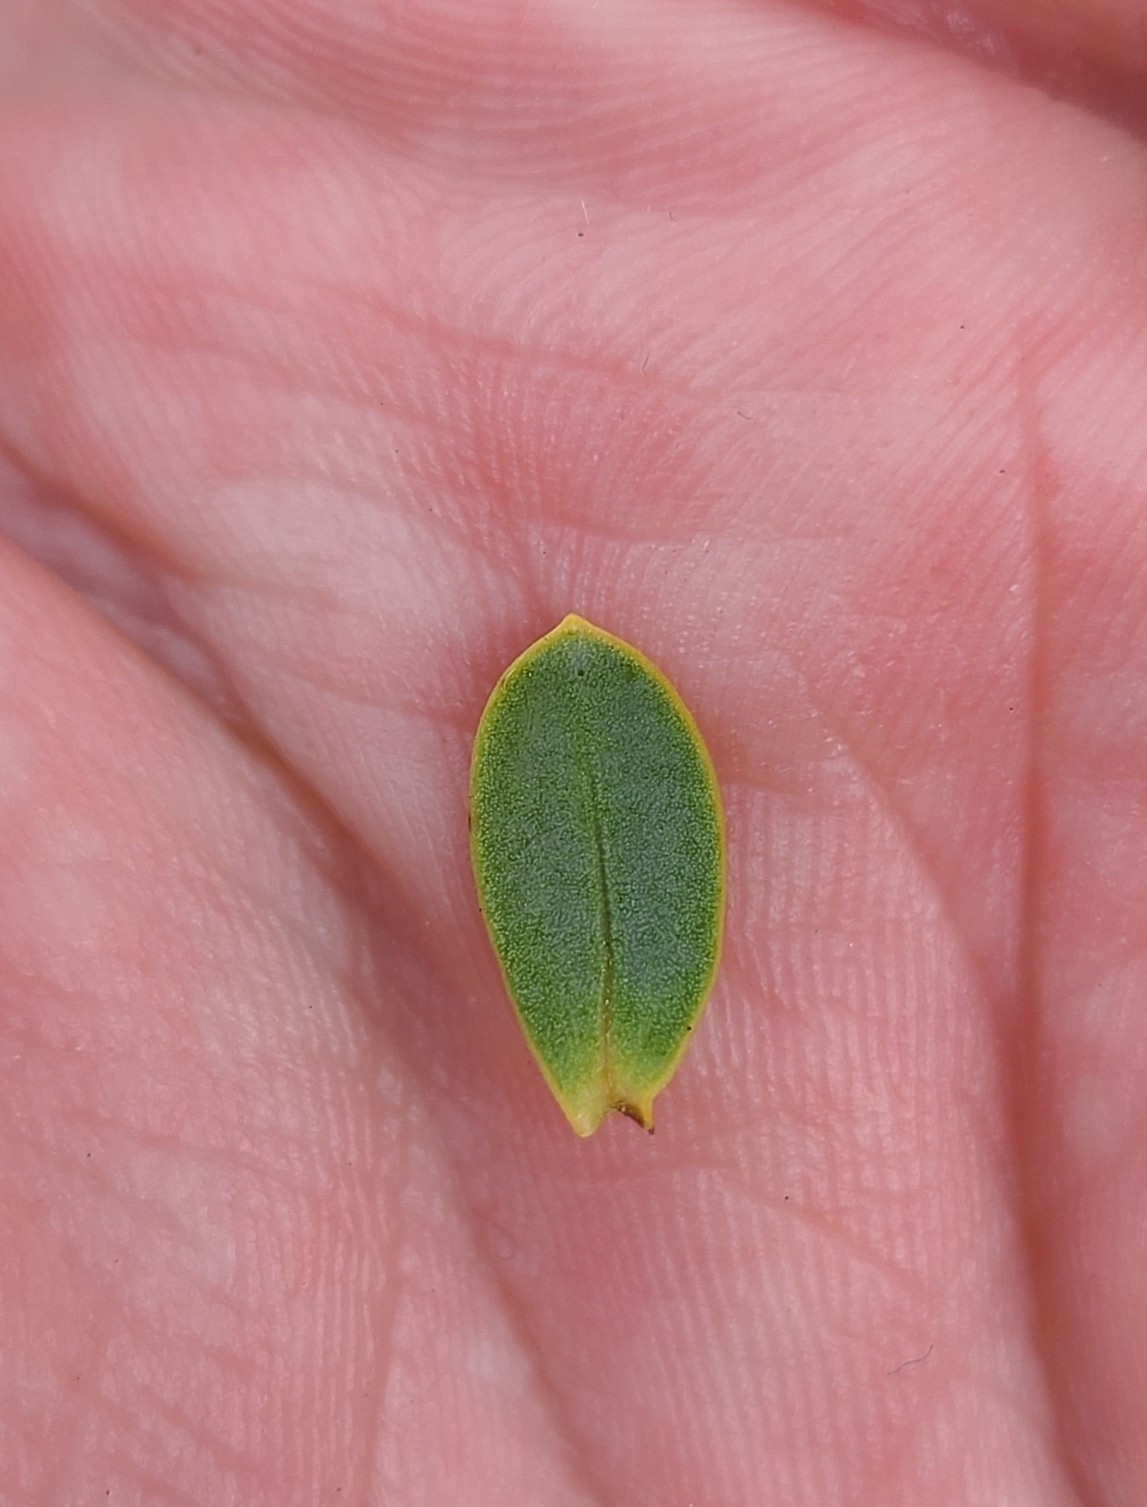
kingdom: Plantae
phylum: Tracheophyta
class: Magnoliopsida
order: Lamiales
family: Plantaginaceae
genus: Veronica
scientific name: Veronica pinguifolia
